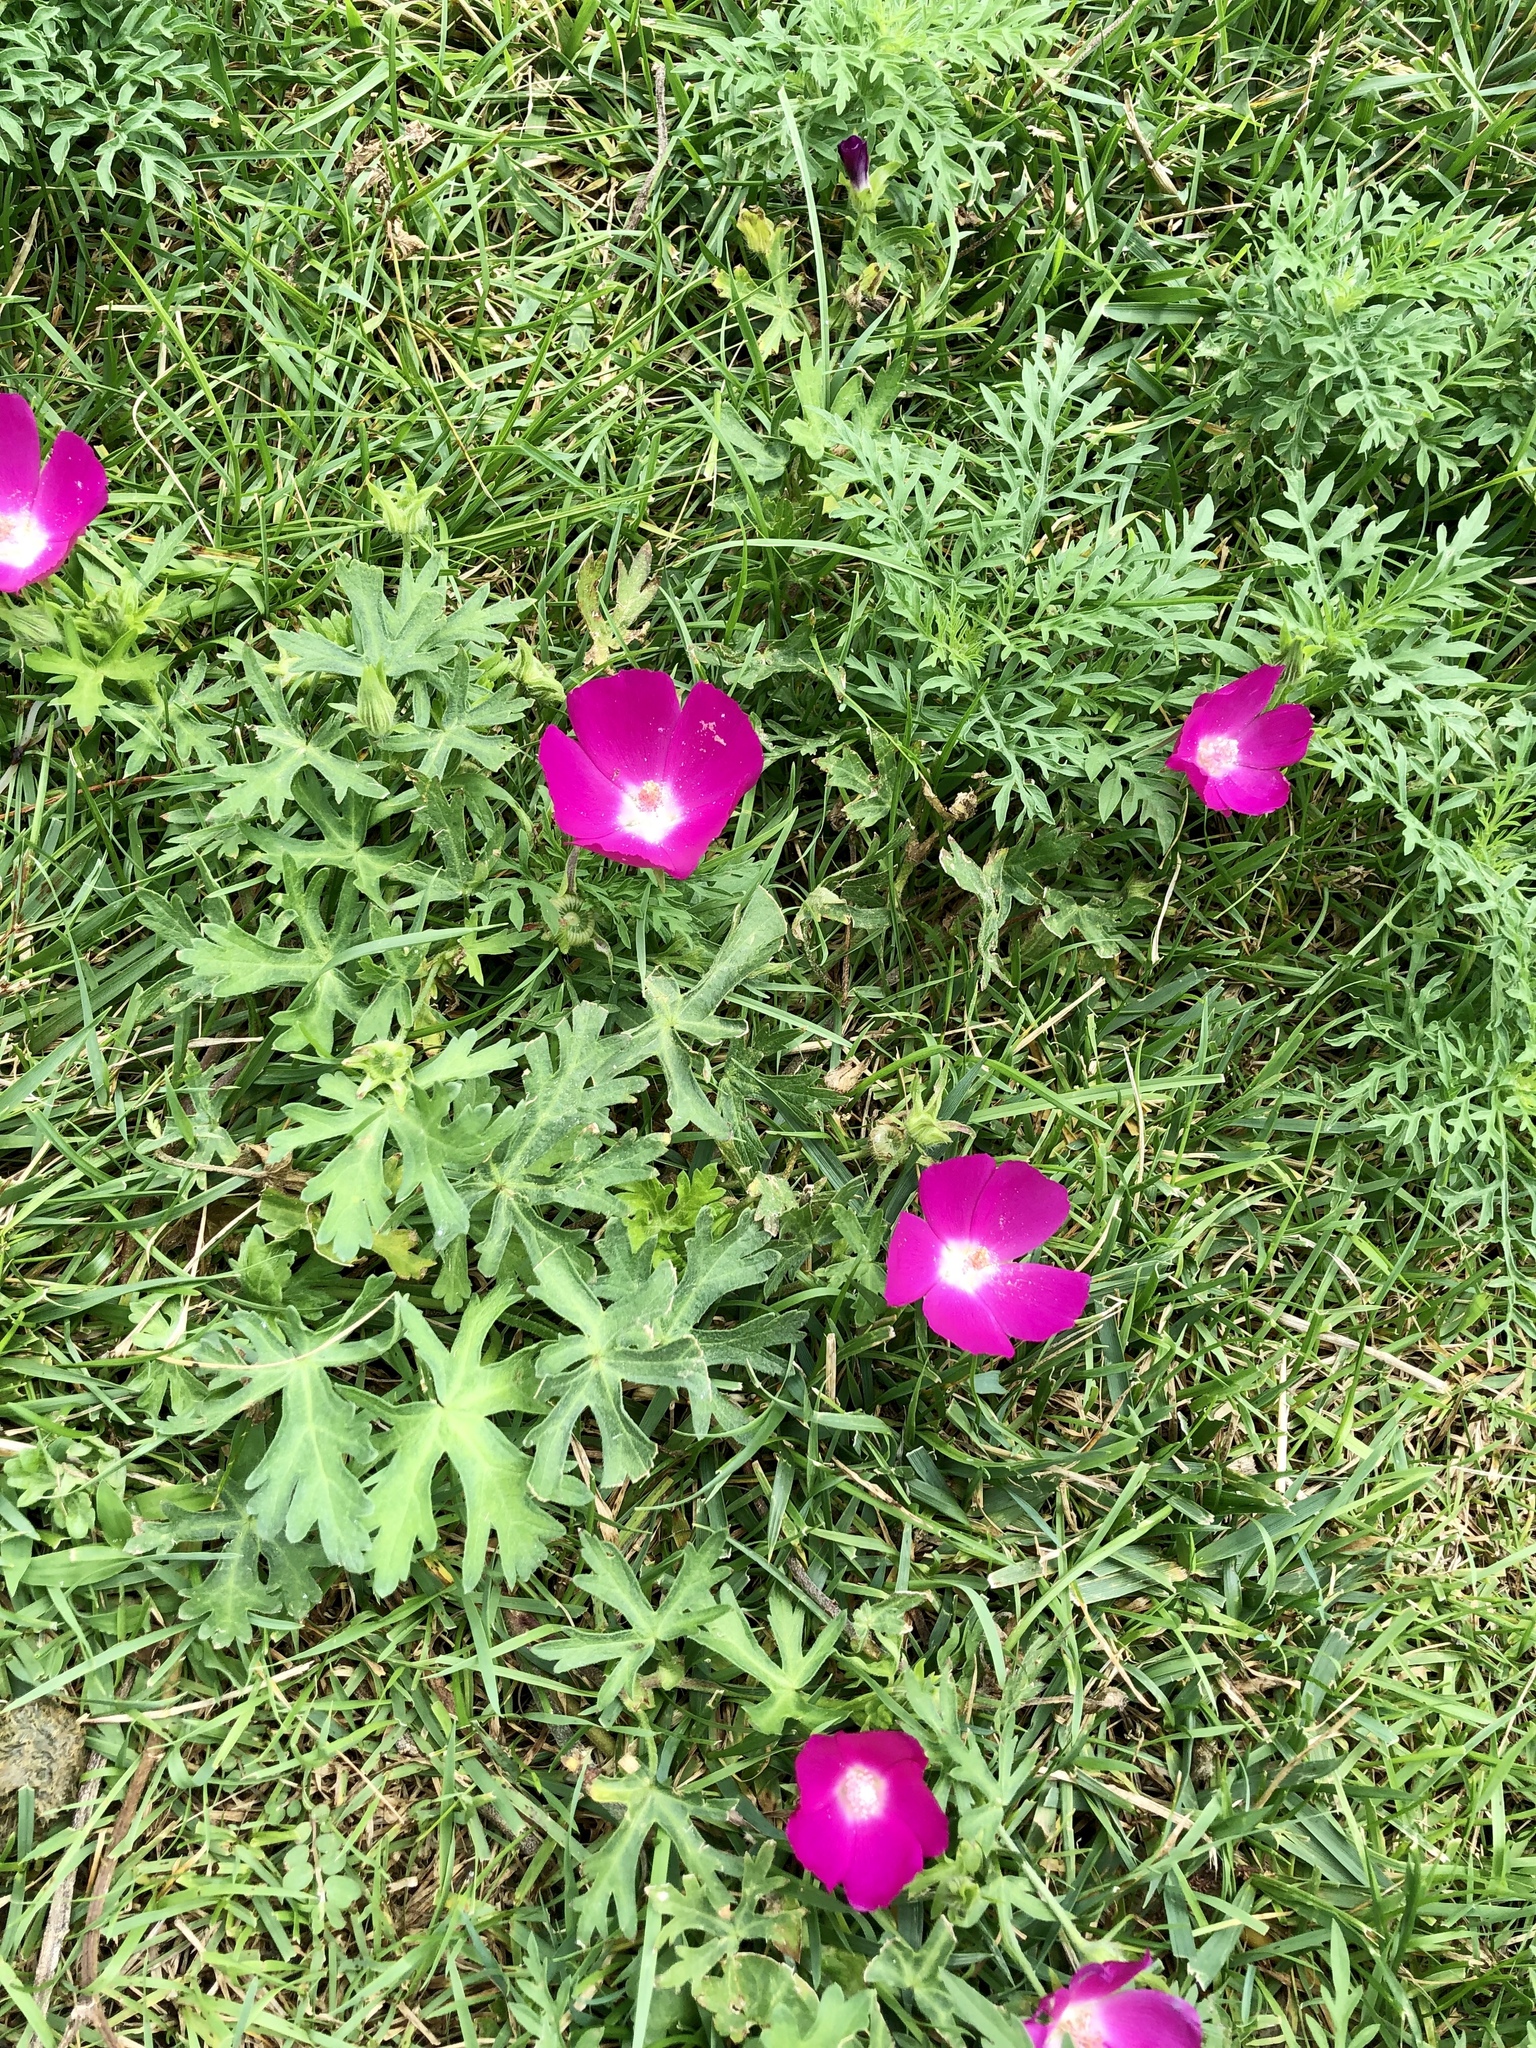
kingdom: Plantae
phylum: Tracheophyta
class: Magnoliopsida
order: Malvales
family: Malvaceae
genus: Callirhoe
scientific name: Callirhoe involucrata
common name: Purple poppy-mallow
